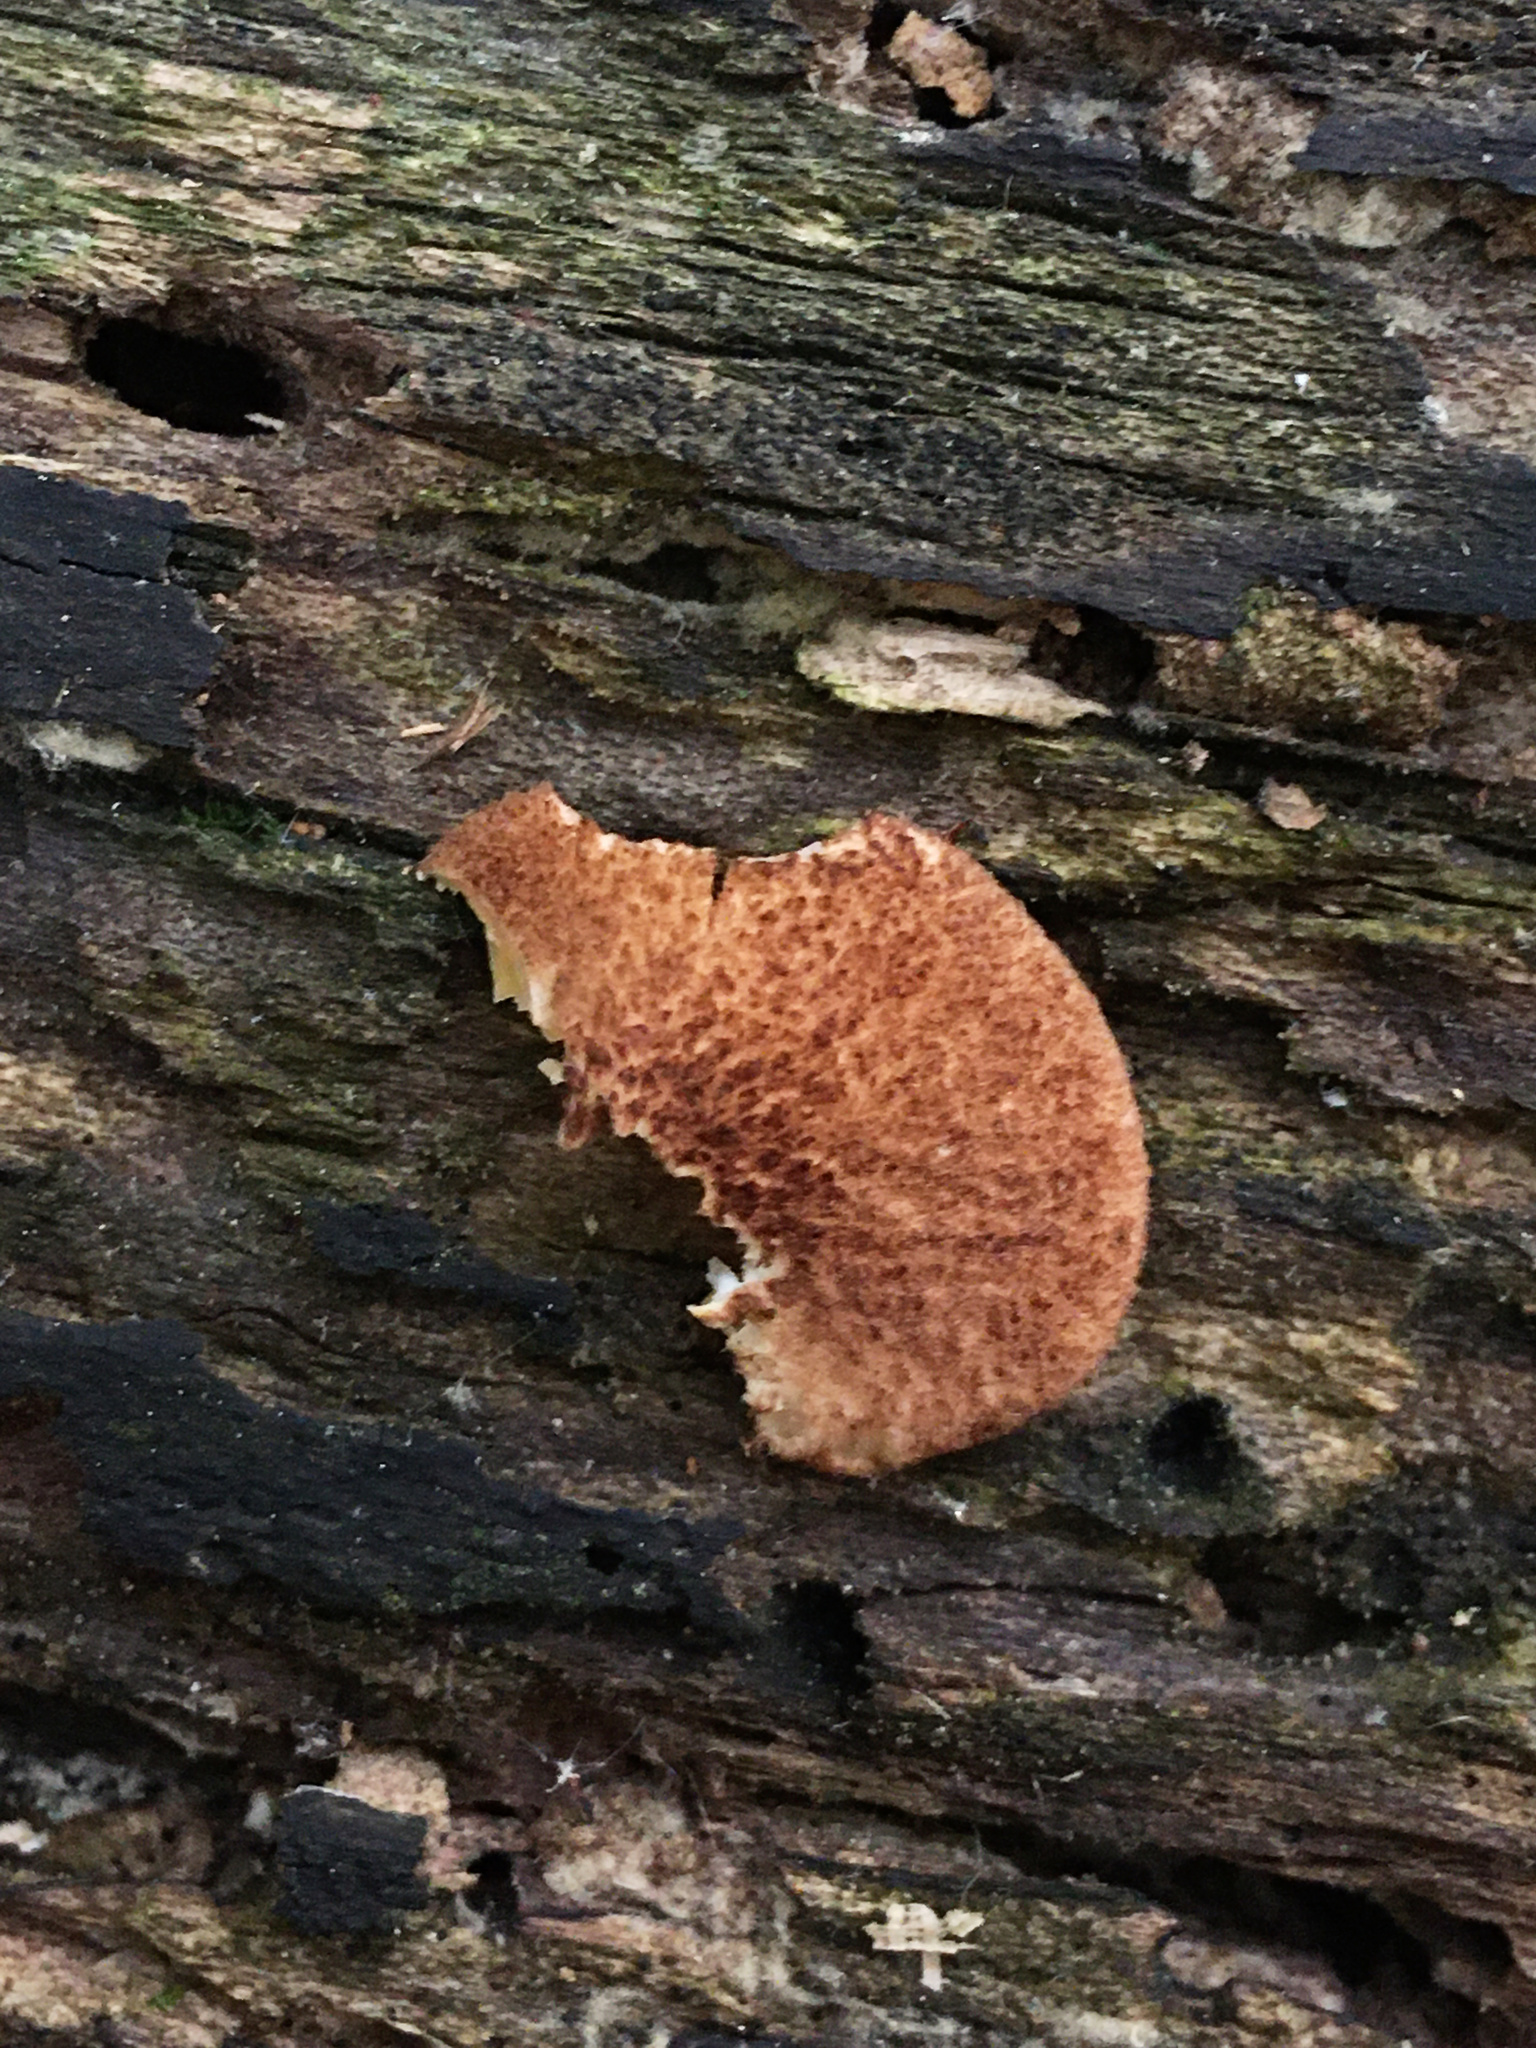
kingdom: Fungi
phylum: Basidiomycota
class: Agaricomycetes
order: Agaricales
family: Crepidotaceae
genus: Crepidotus
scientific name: Crepidotus crocophyllus
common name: Saffron oysterling
